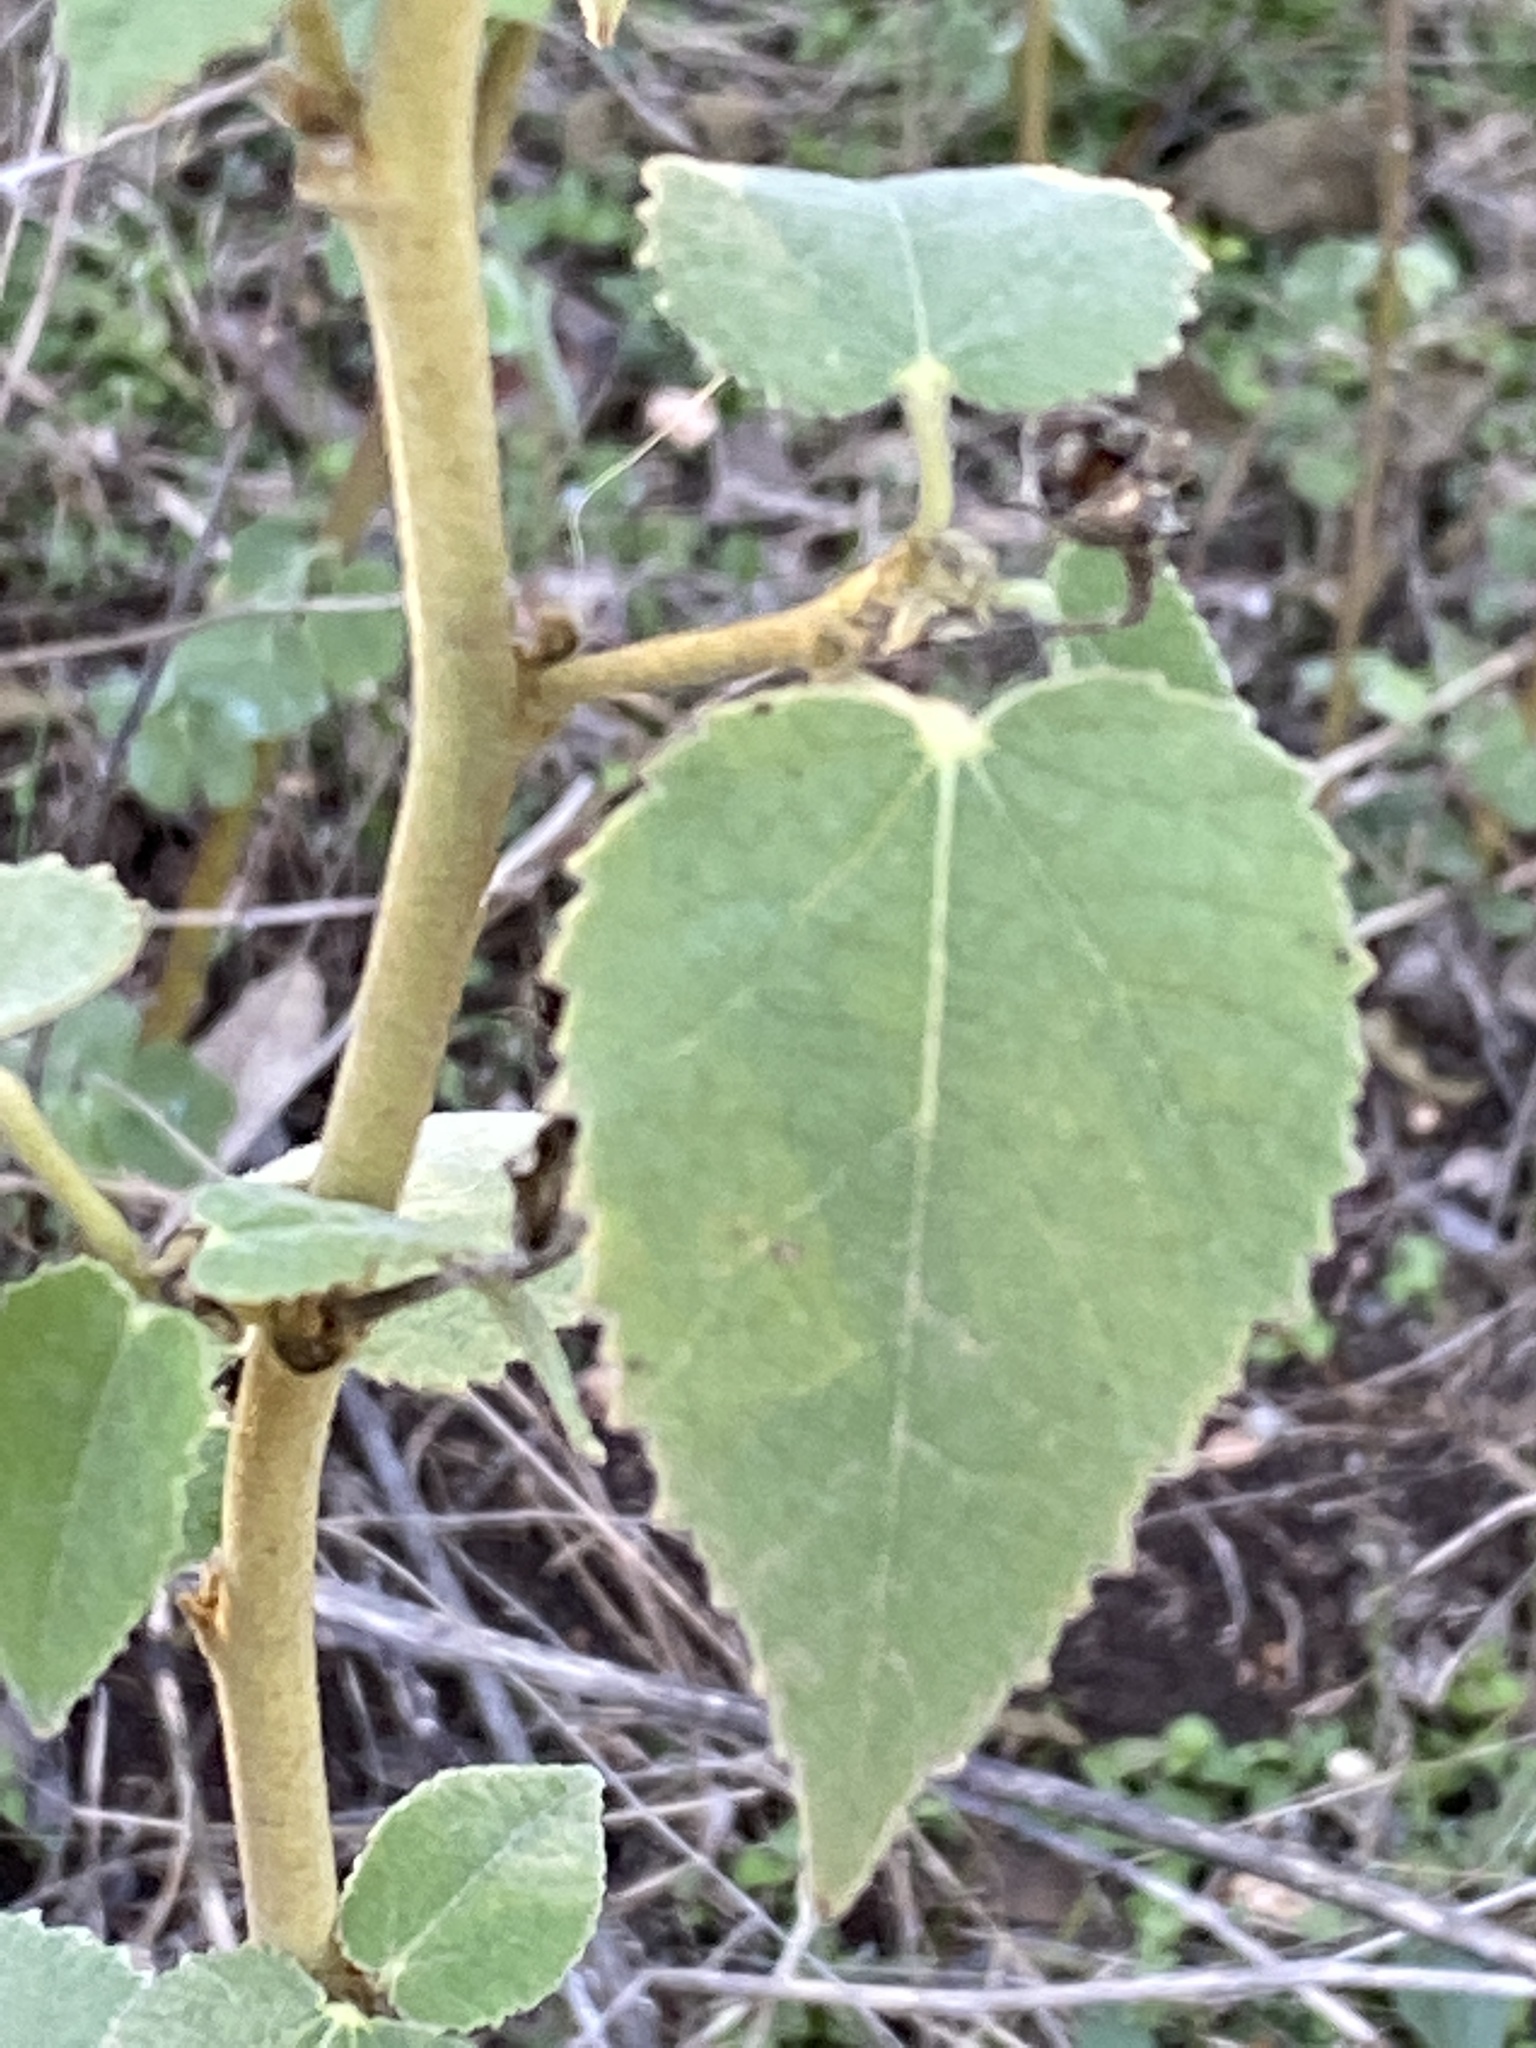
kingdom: Plantae
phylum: Tracheophyta
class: Magnoliopsida
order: Malvales
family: Malvaceae
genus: Allowissadula
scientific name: Allowissadula holosericea
